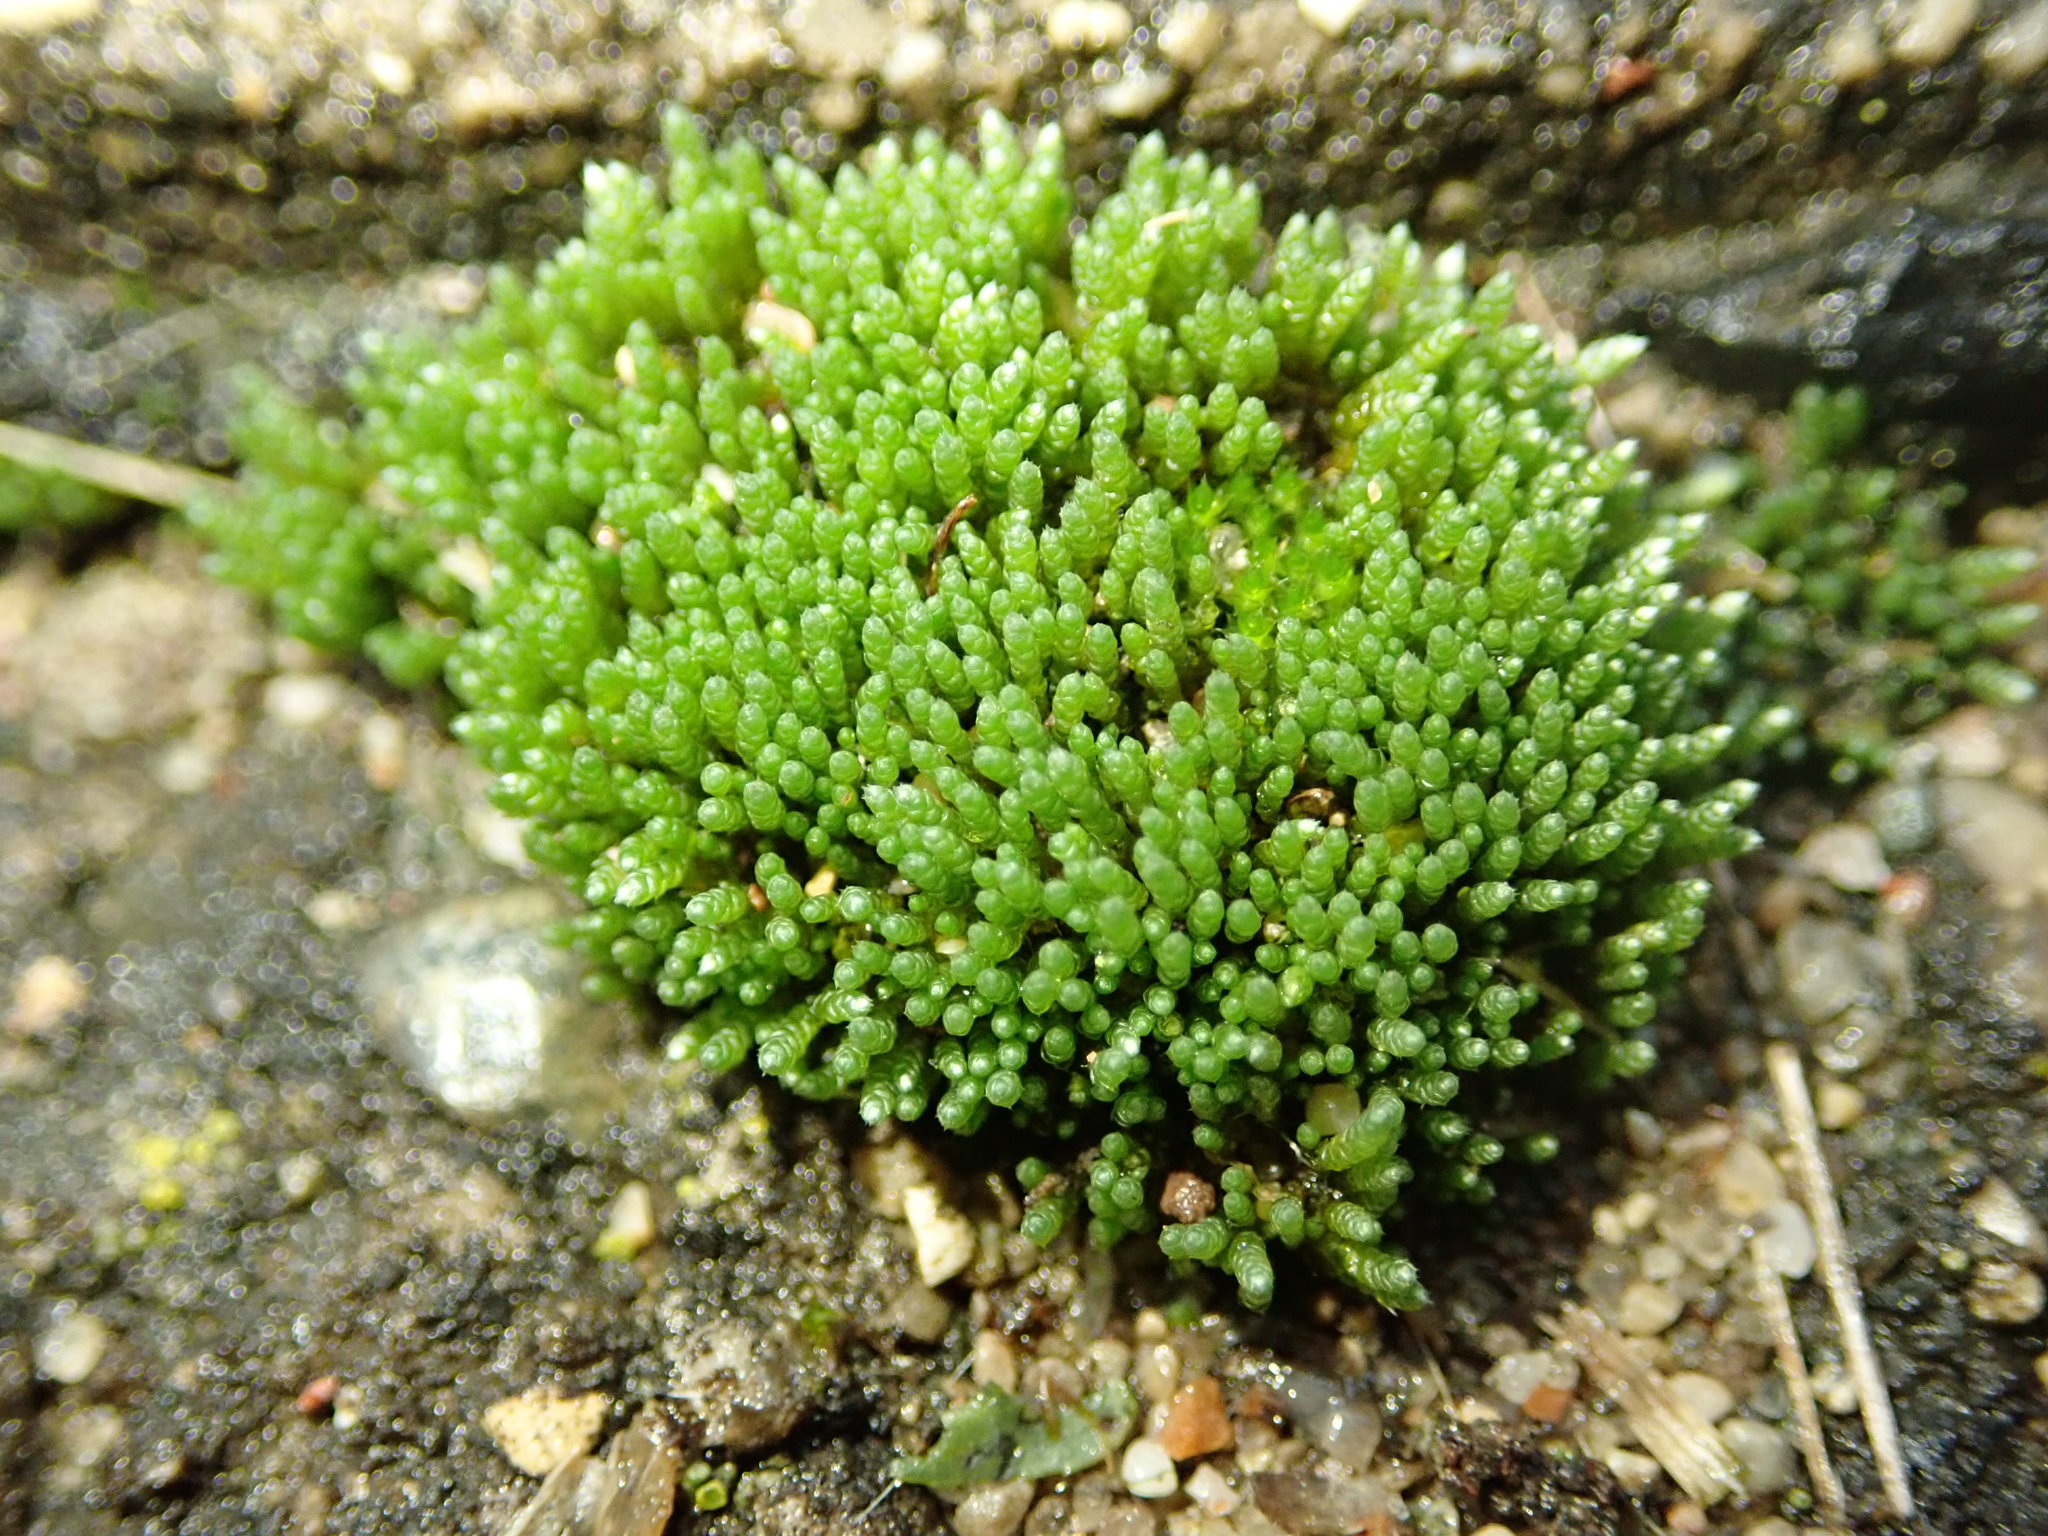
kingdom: Plantae
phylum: Bryophyta
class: Bryopsida
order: Bryales
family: Bryaceae
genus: Bryum
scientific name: Bryum argenteum
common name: Silver-moss
